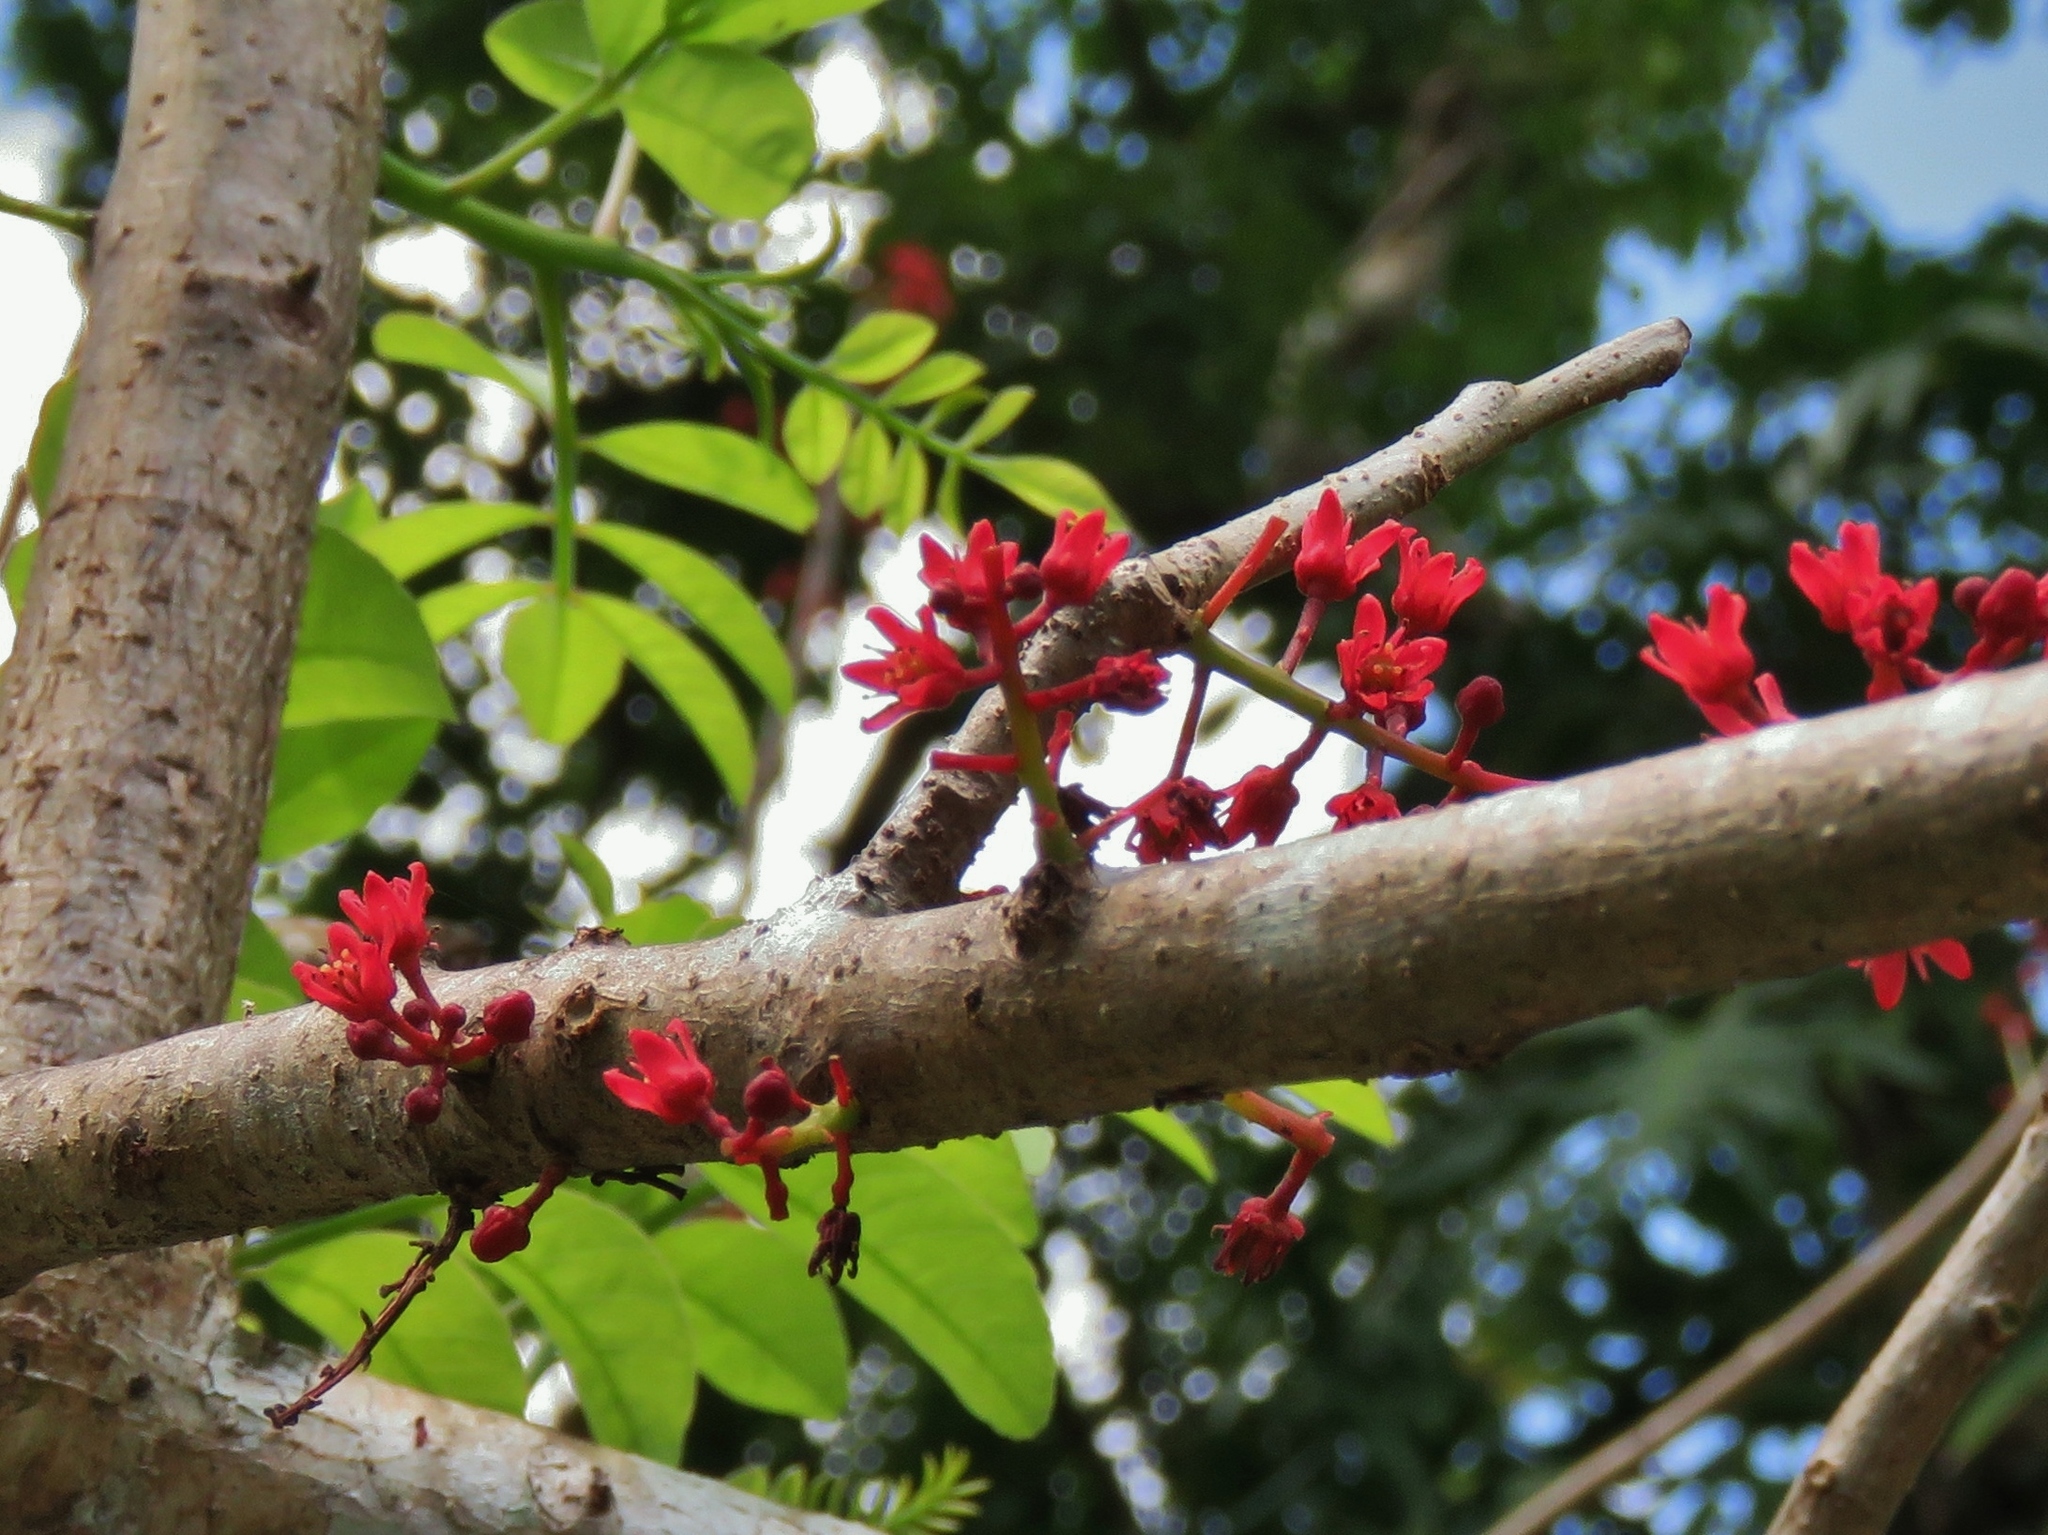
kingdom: Plantae
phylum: Tracheophyta
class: Magnoliopsida
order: Sapindales
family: Anacardiaceae
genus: Spondias
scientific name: Spondias purpurea
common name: Purple mombin
